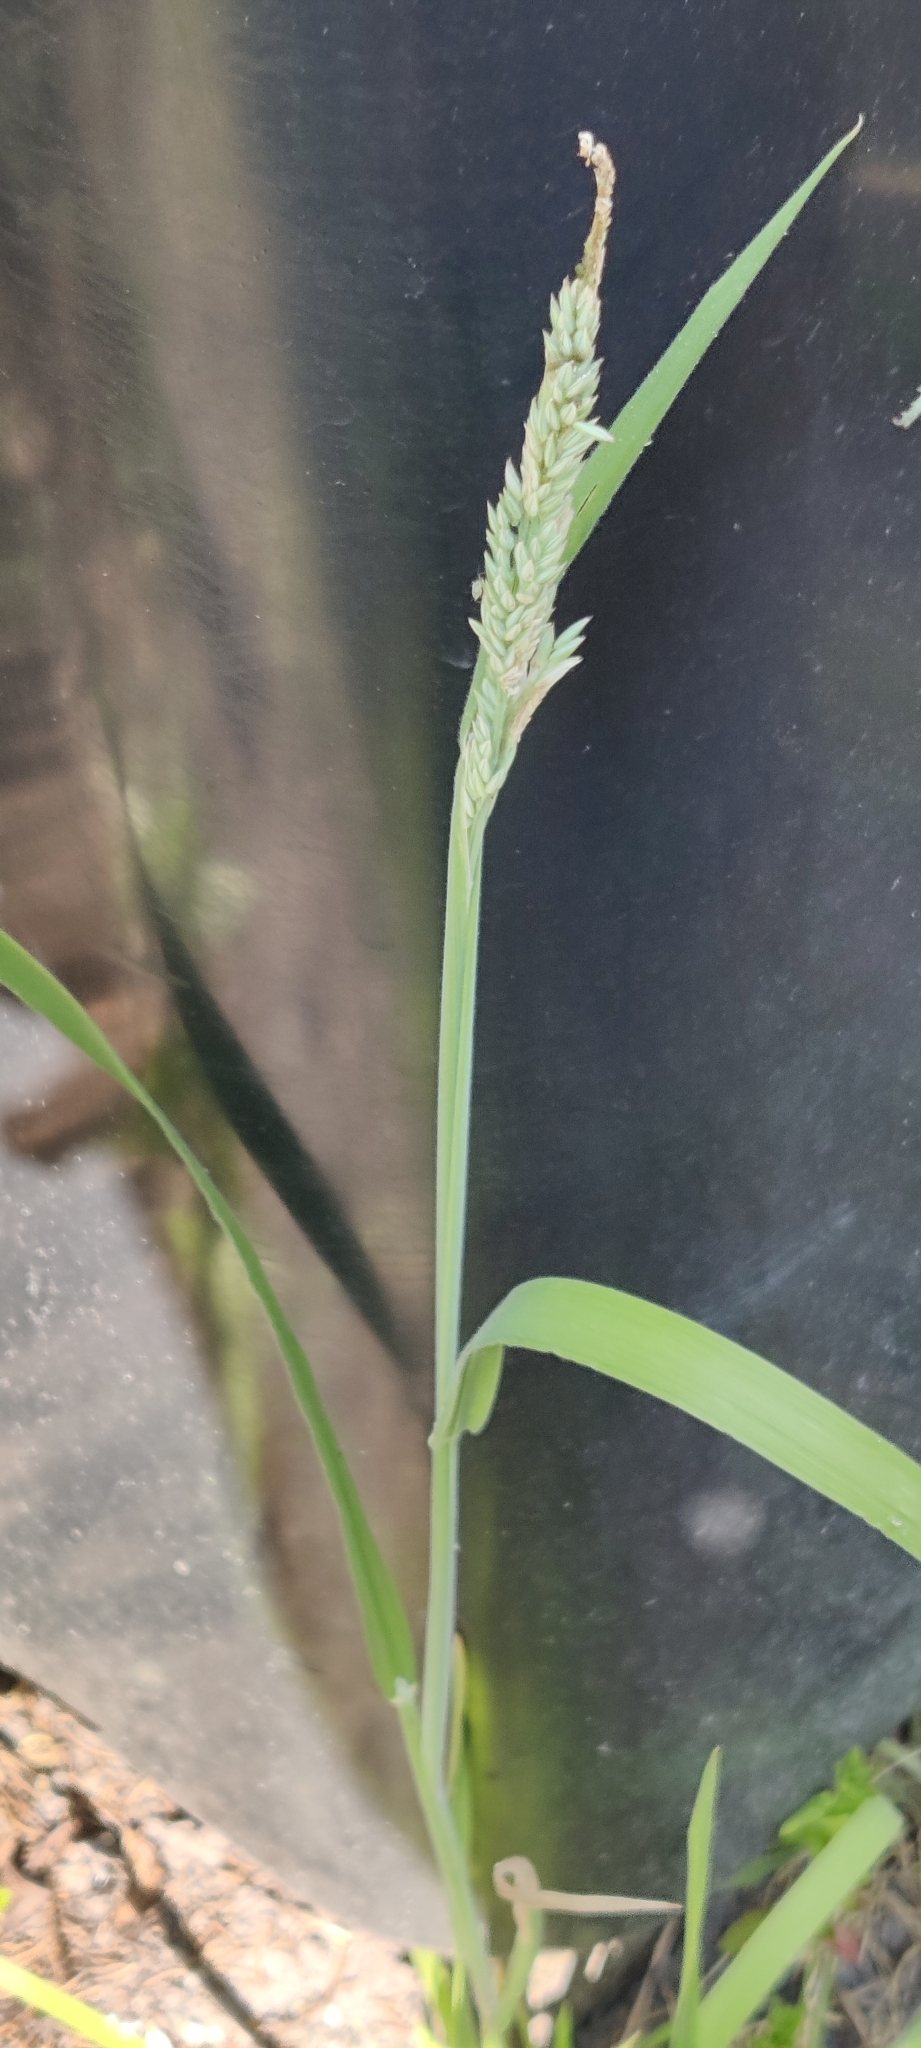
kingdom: Plantae
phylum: Tracheophyta
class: Liliopsida
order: Poales
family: Poaceae
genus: Holcus
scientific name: Holcus lanatus
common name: Yorkshire-fog
